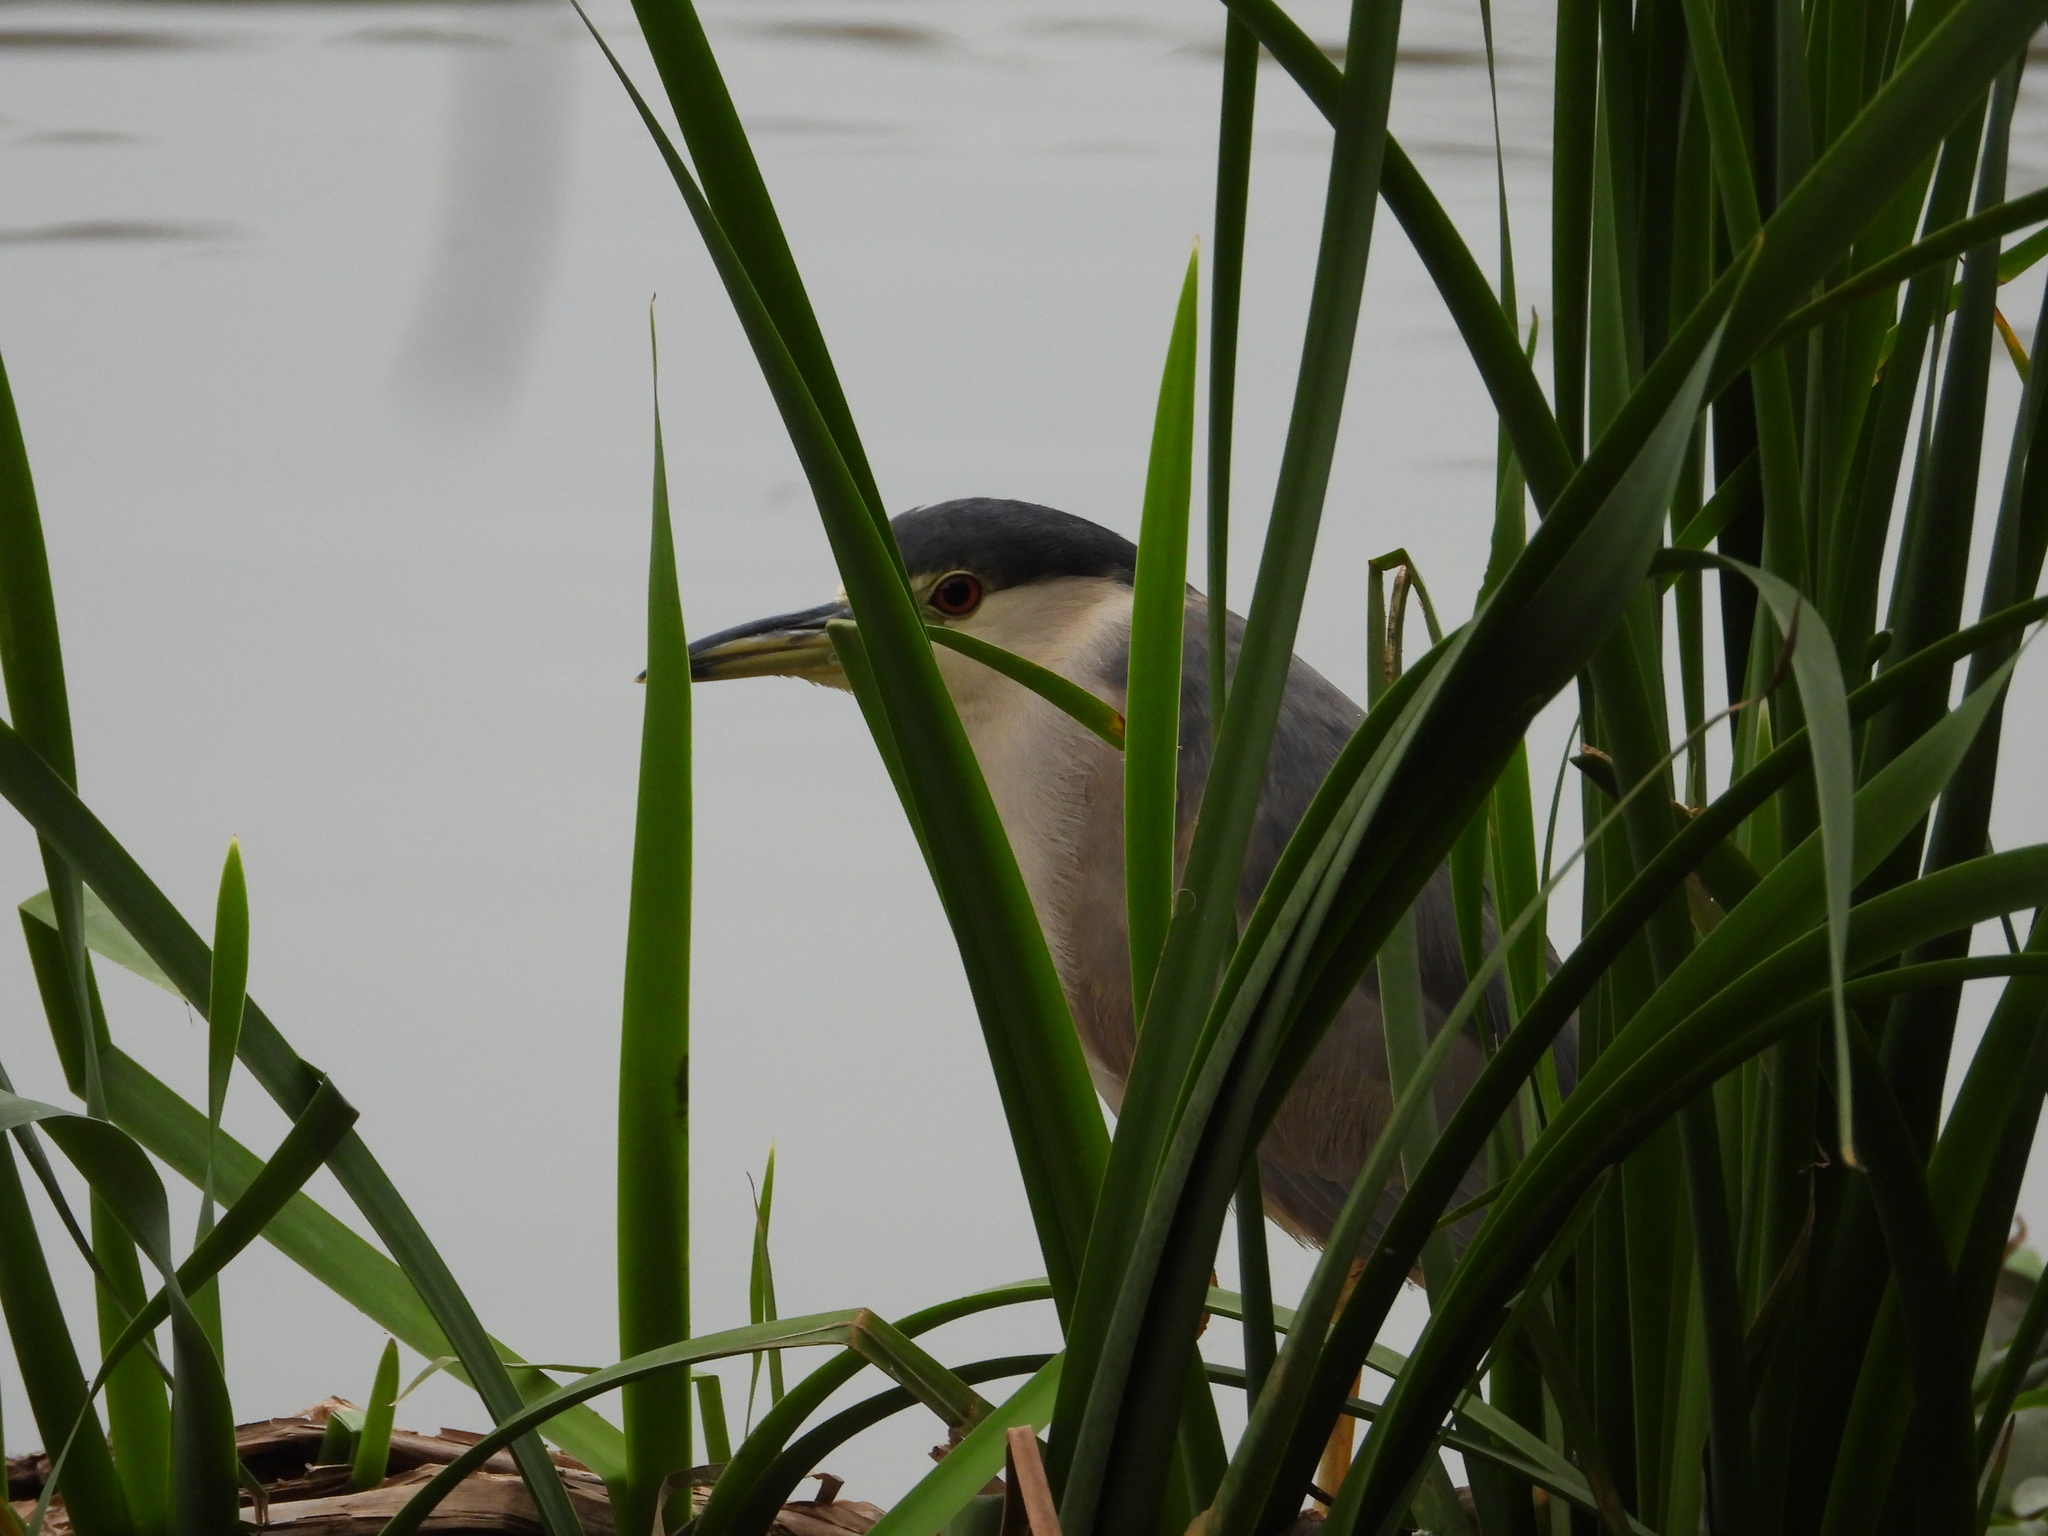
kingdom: Animalia
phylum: Chordata
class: Aves
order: Pelecaniformes
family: Ardeidae
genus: Nycticorax
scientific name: Nycticorax nycticorax
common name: Black-crowned night heron
